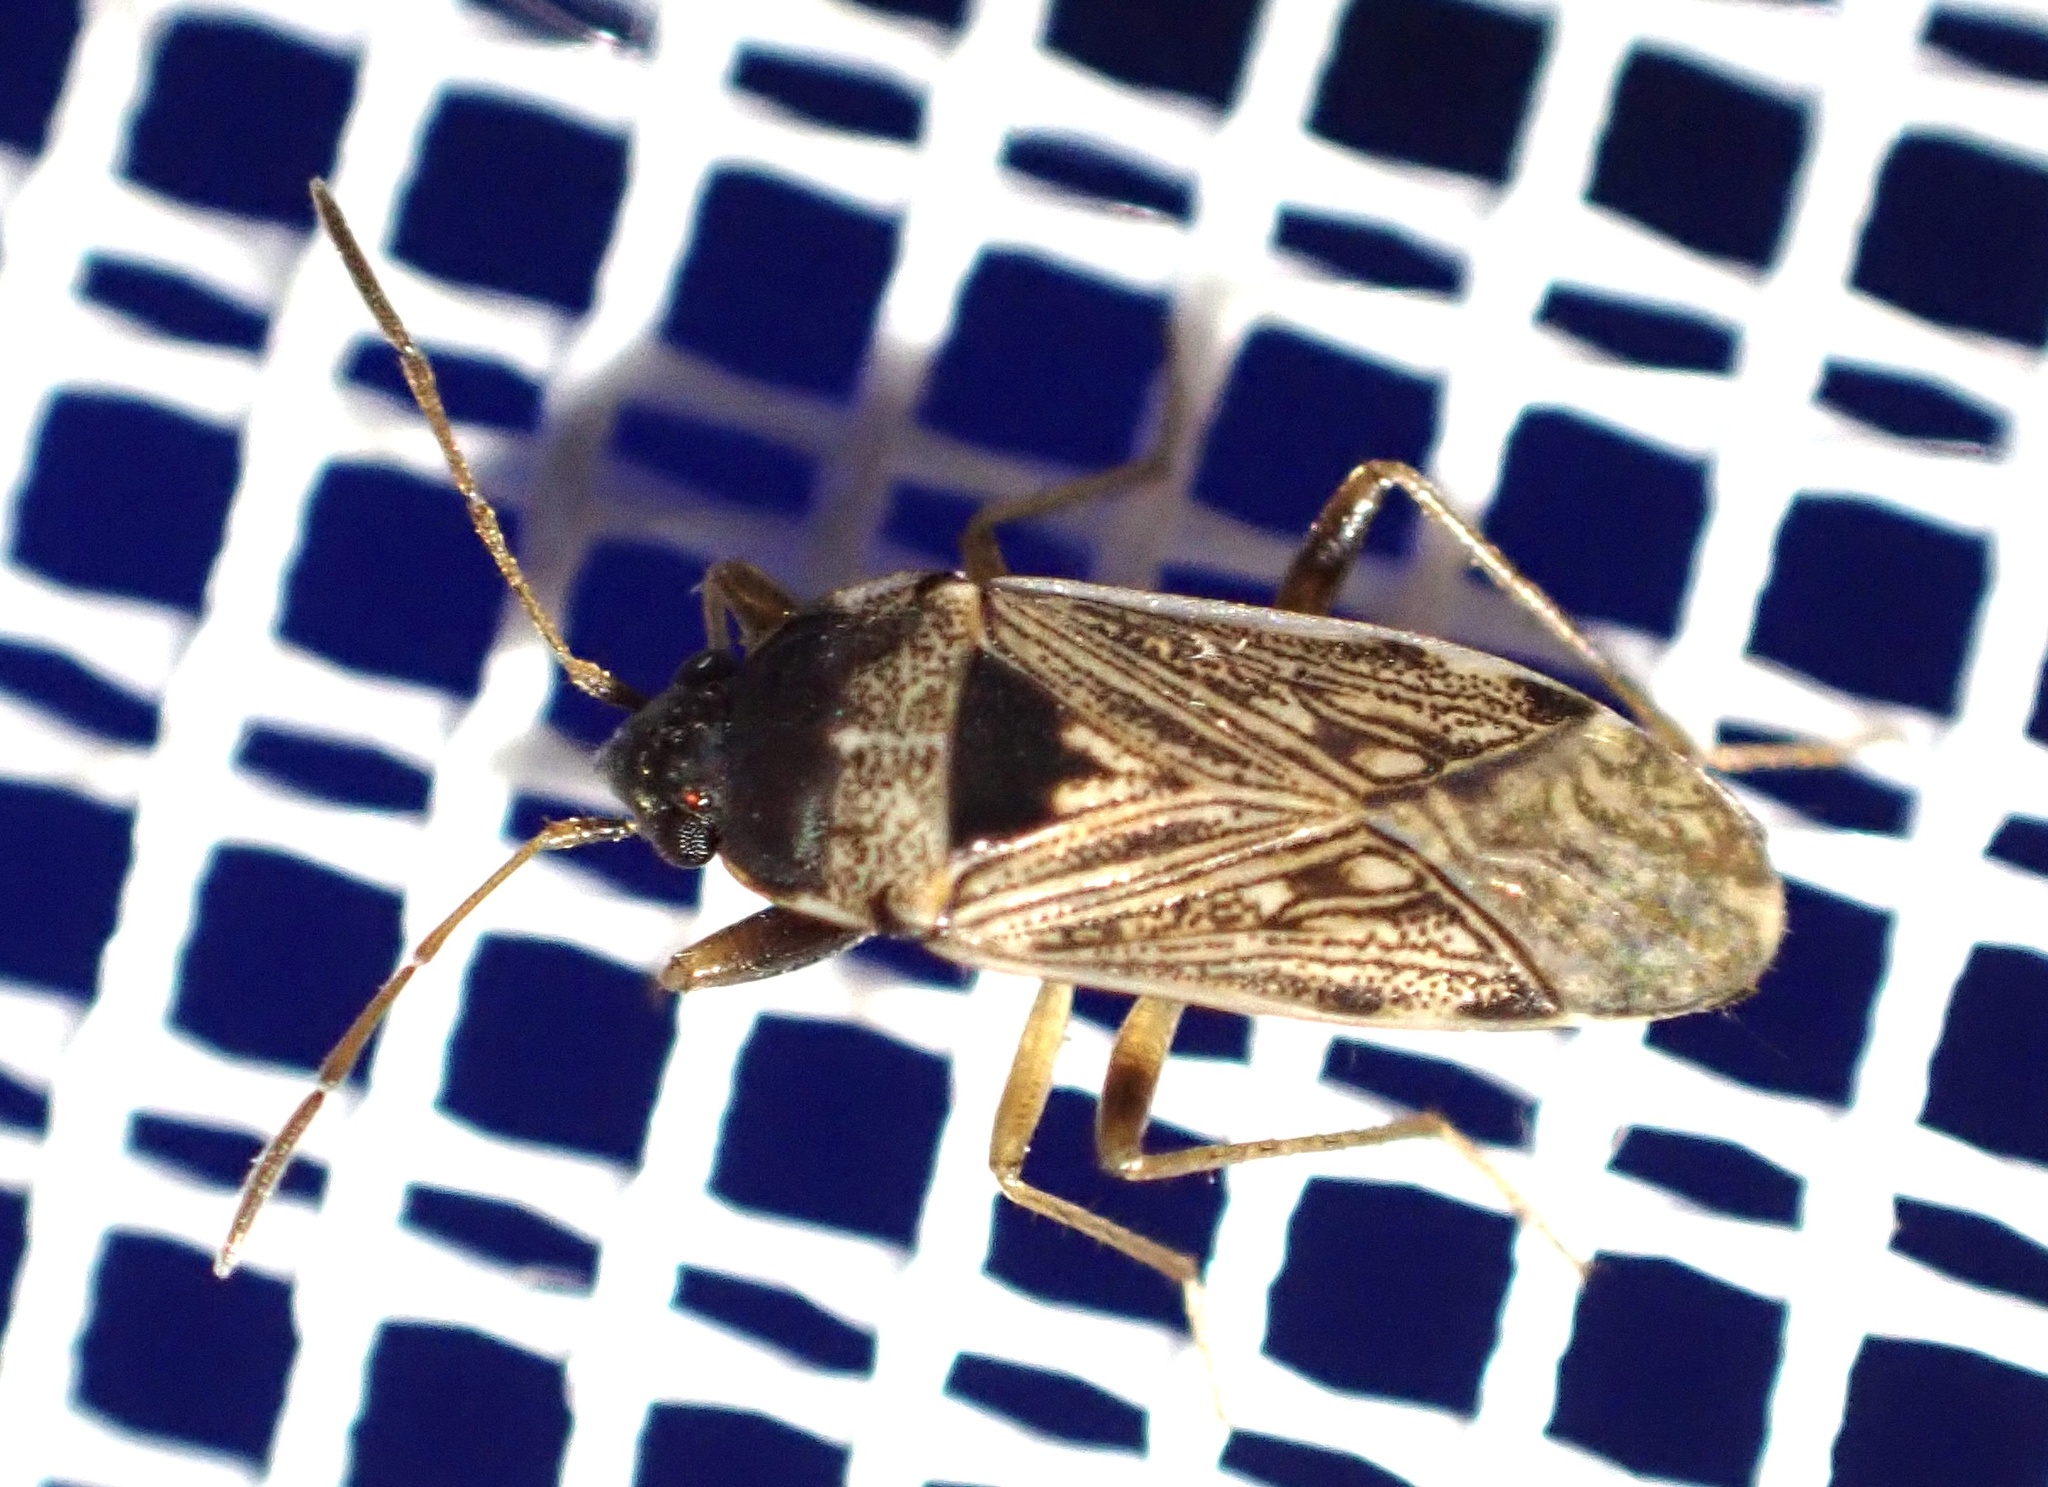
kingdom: Animalia
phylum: Arthropoda
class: Insecta
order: Hemiptera
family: Rhyparochromidae
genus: Elasmolomus
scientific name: Elasmolomus consocialis
